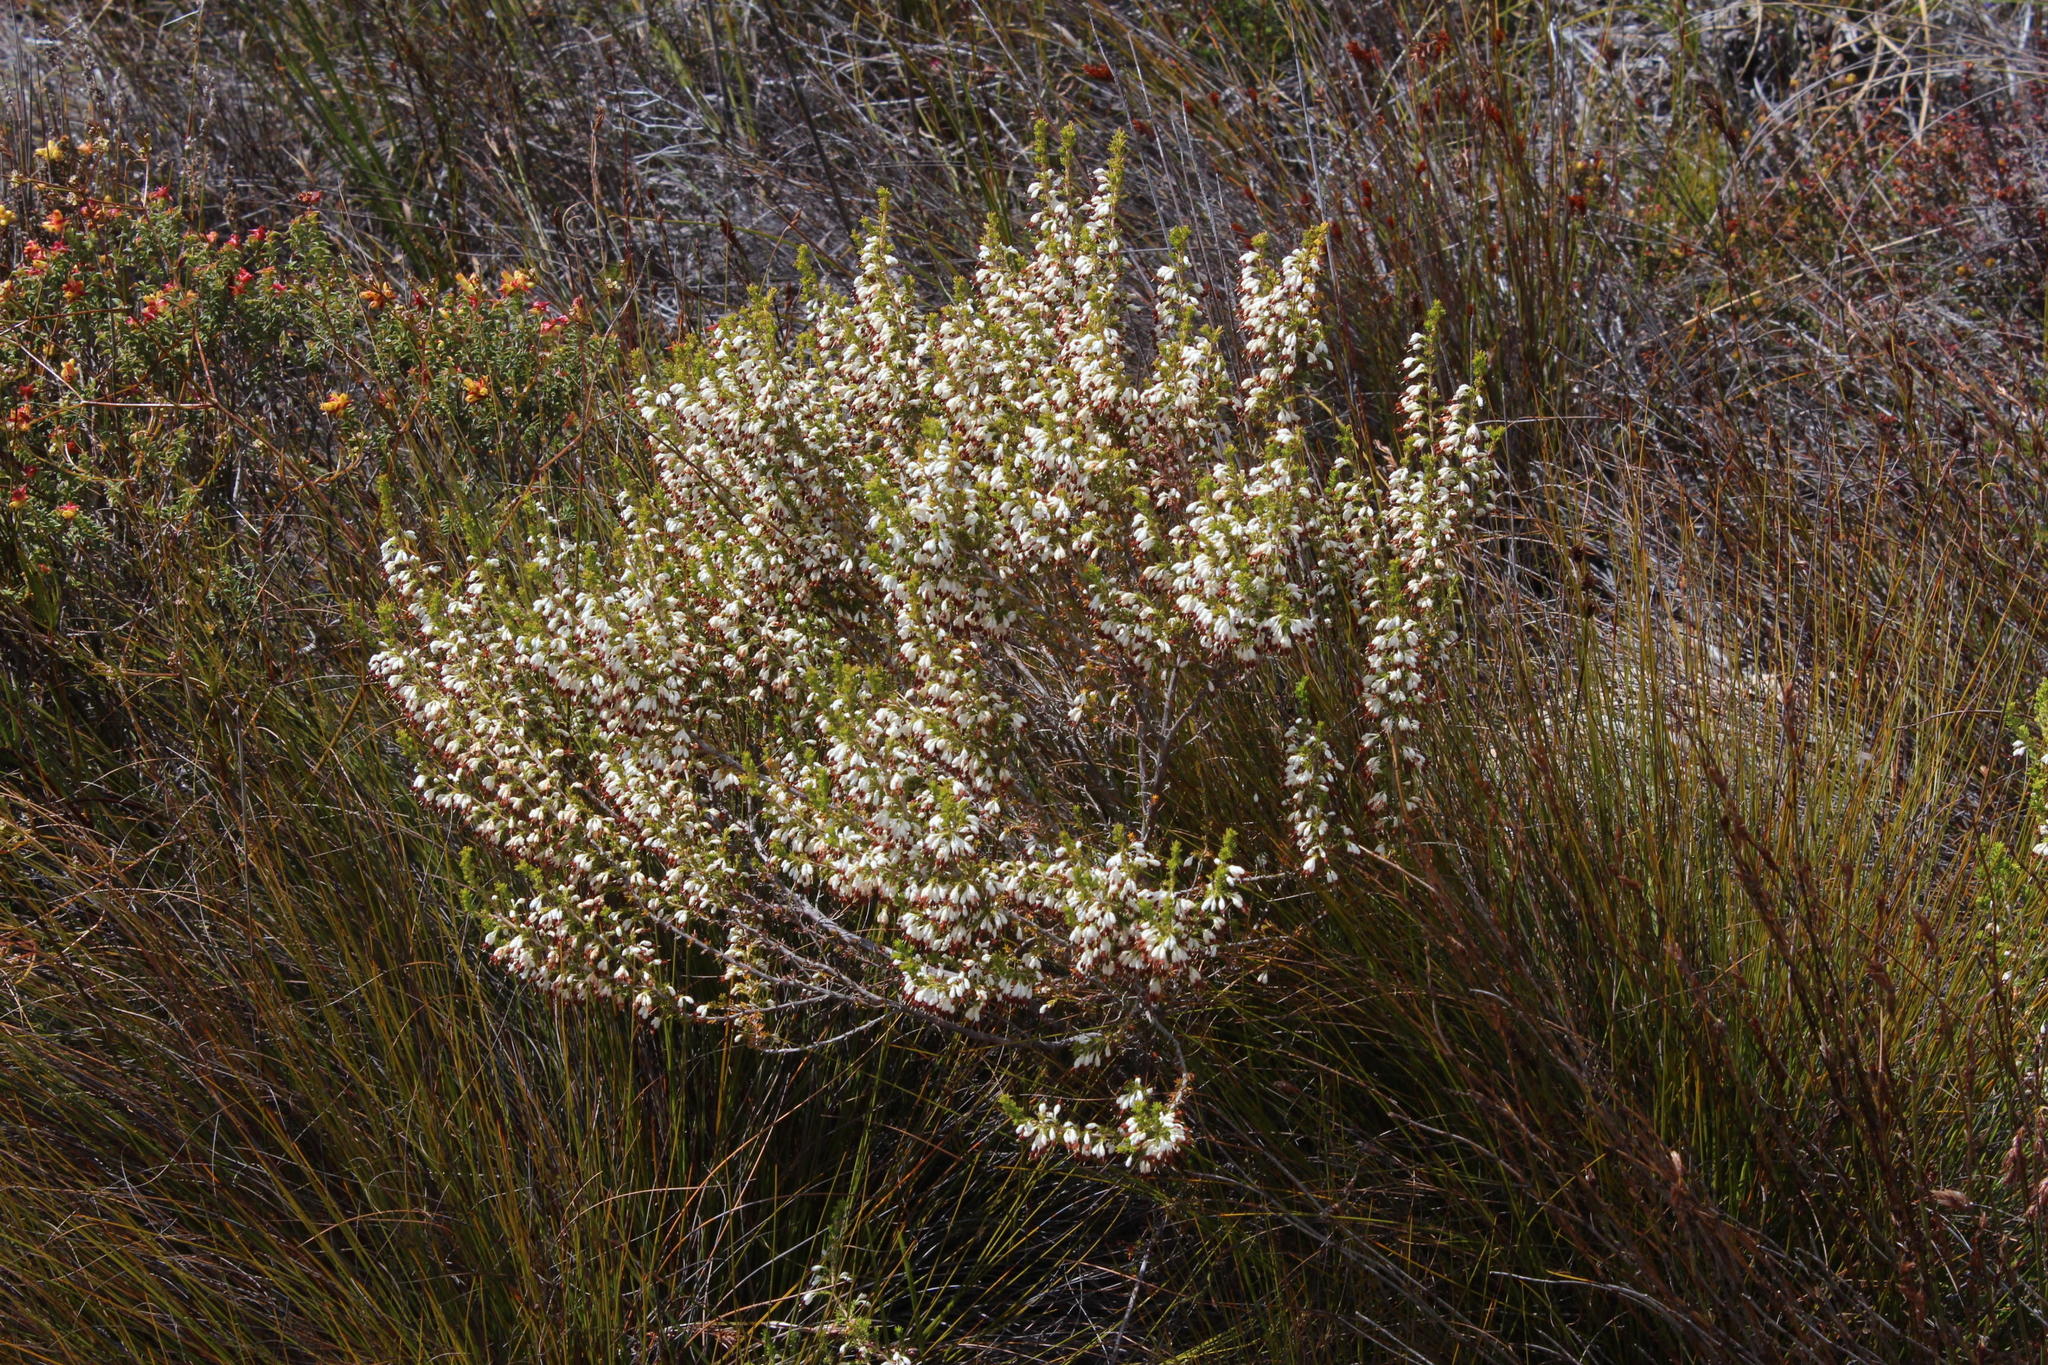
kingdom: Plantae
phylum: Tracheophyta
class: Magnoliopsida
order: Ericales
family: Ericaceae
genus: Erica
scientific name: Erica imbricata
